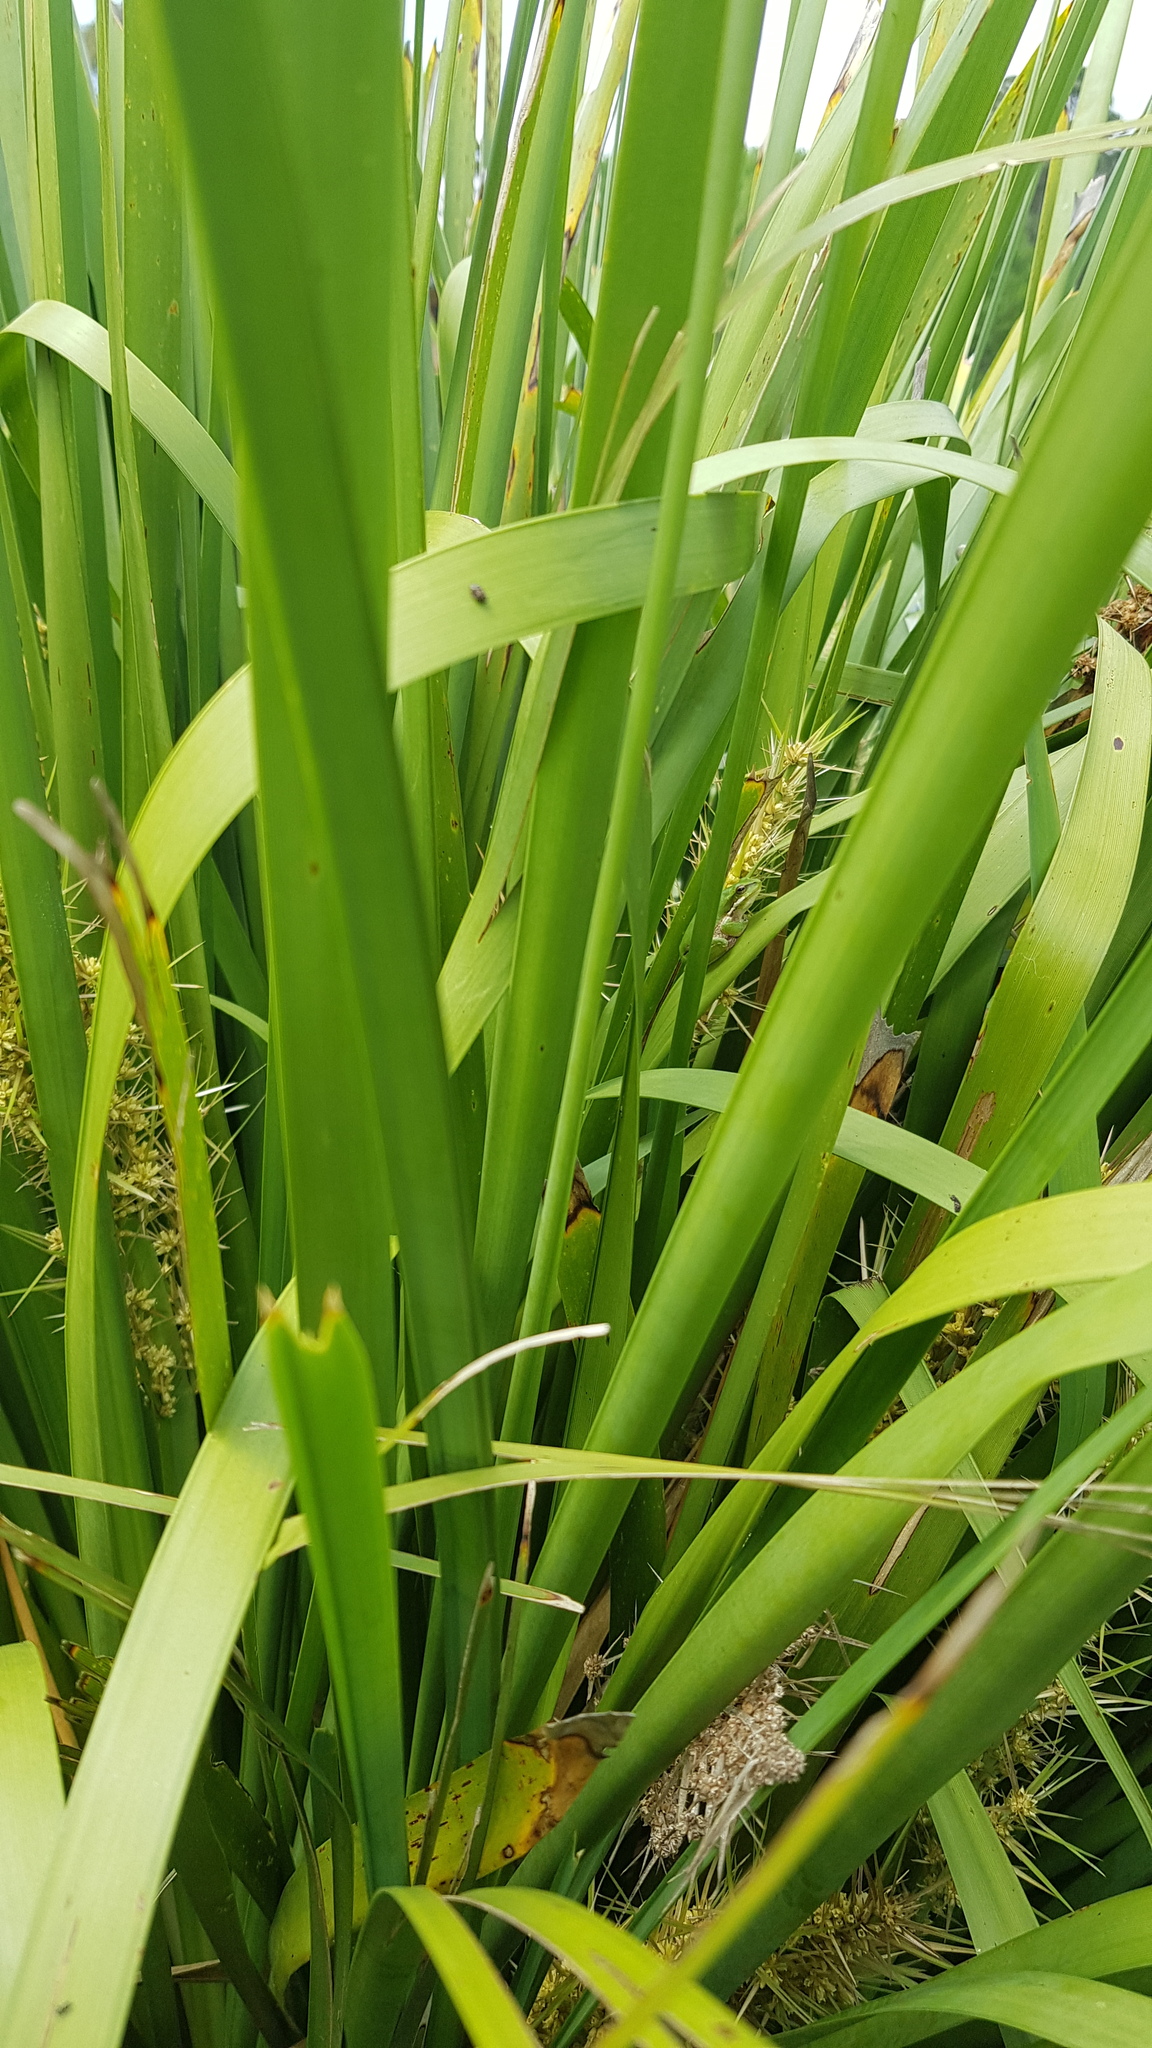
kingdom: Animalia
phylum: Chordata
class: Amphibia
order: Anura
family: Pelodryadidae
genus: Litoria
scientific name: Litoria fallax
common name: Eastern dwarf treefrog
